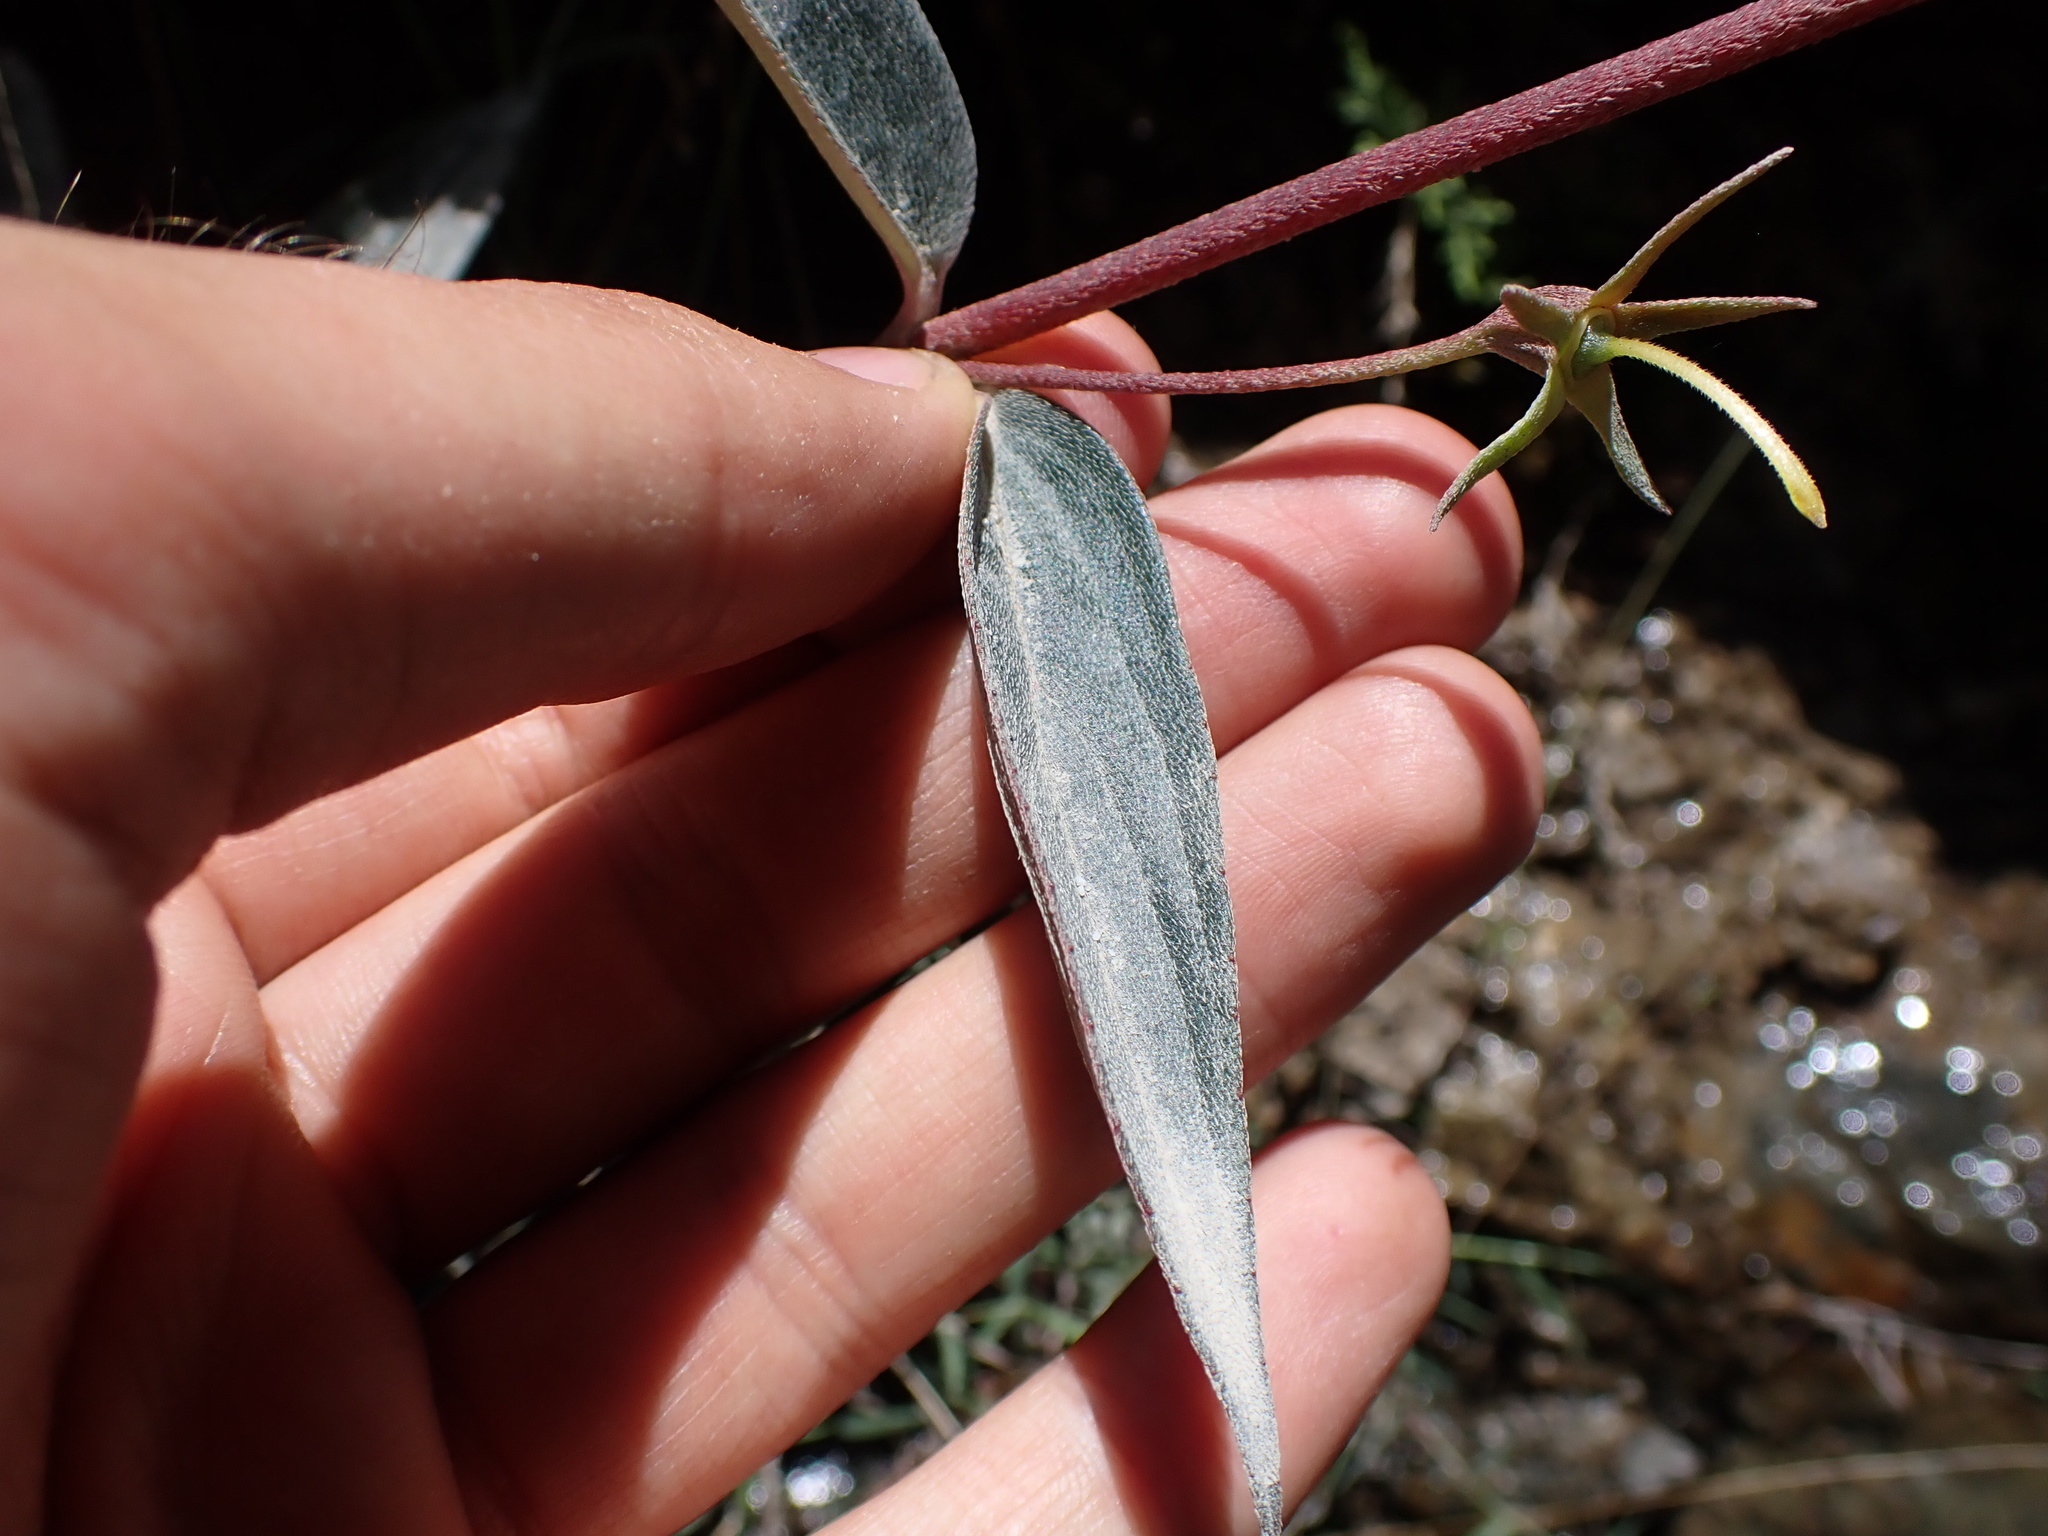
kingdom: Plantae
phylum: Tracheophyta
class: Magnoliopsida
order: Lamiales
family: Gesneriaceae
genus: Seemannia
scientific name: Seemannia sylvatica
